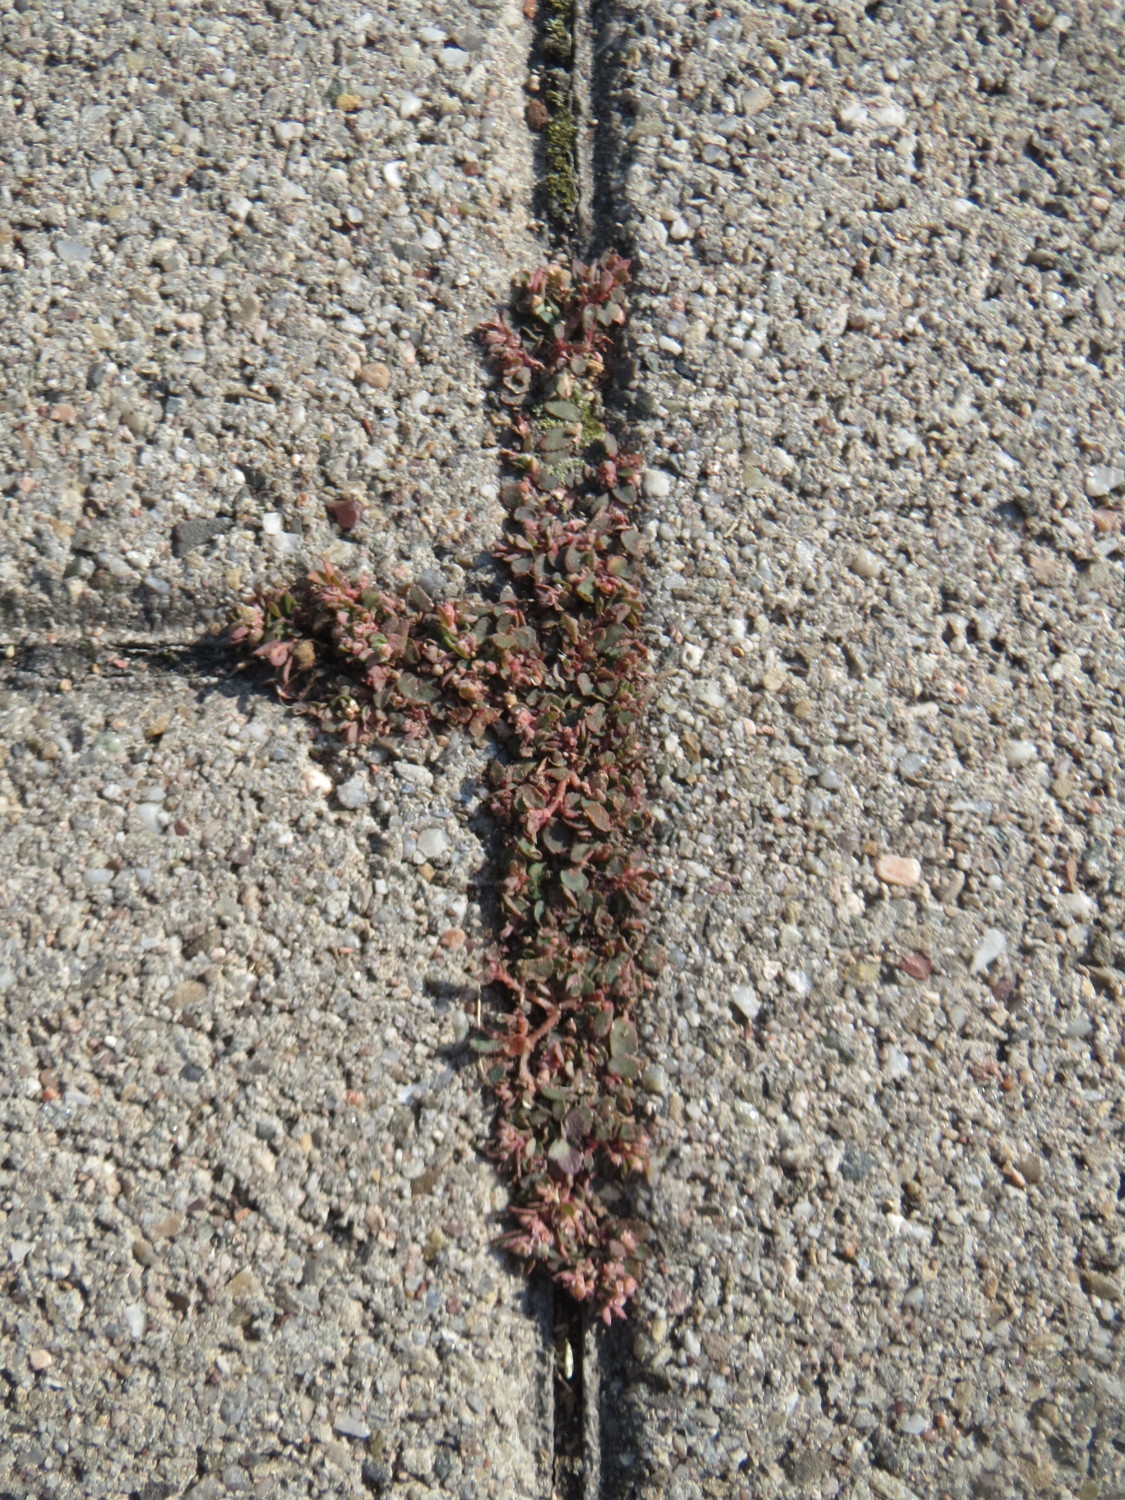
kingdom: Plantae
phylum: Tracheophyta
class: Magnoliopsida
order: Malpighiales
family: Euphorbiaceae
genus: Euphorbia
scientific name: Euphorbia maculata
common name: Spotted spurge
